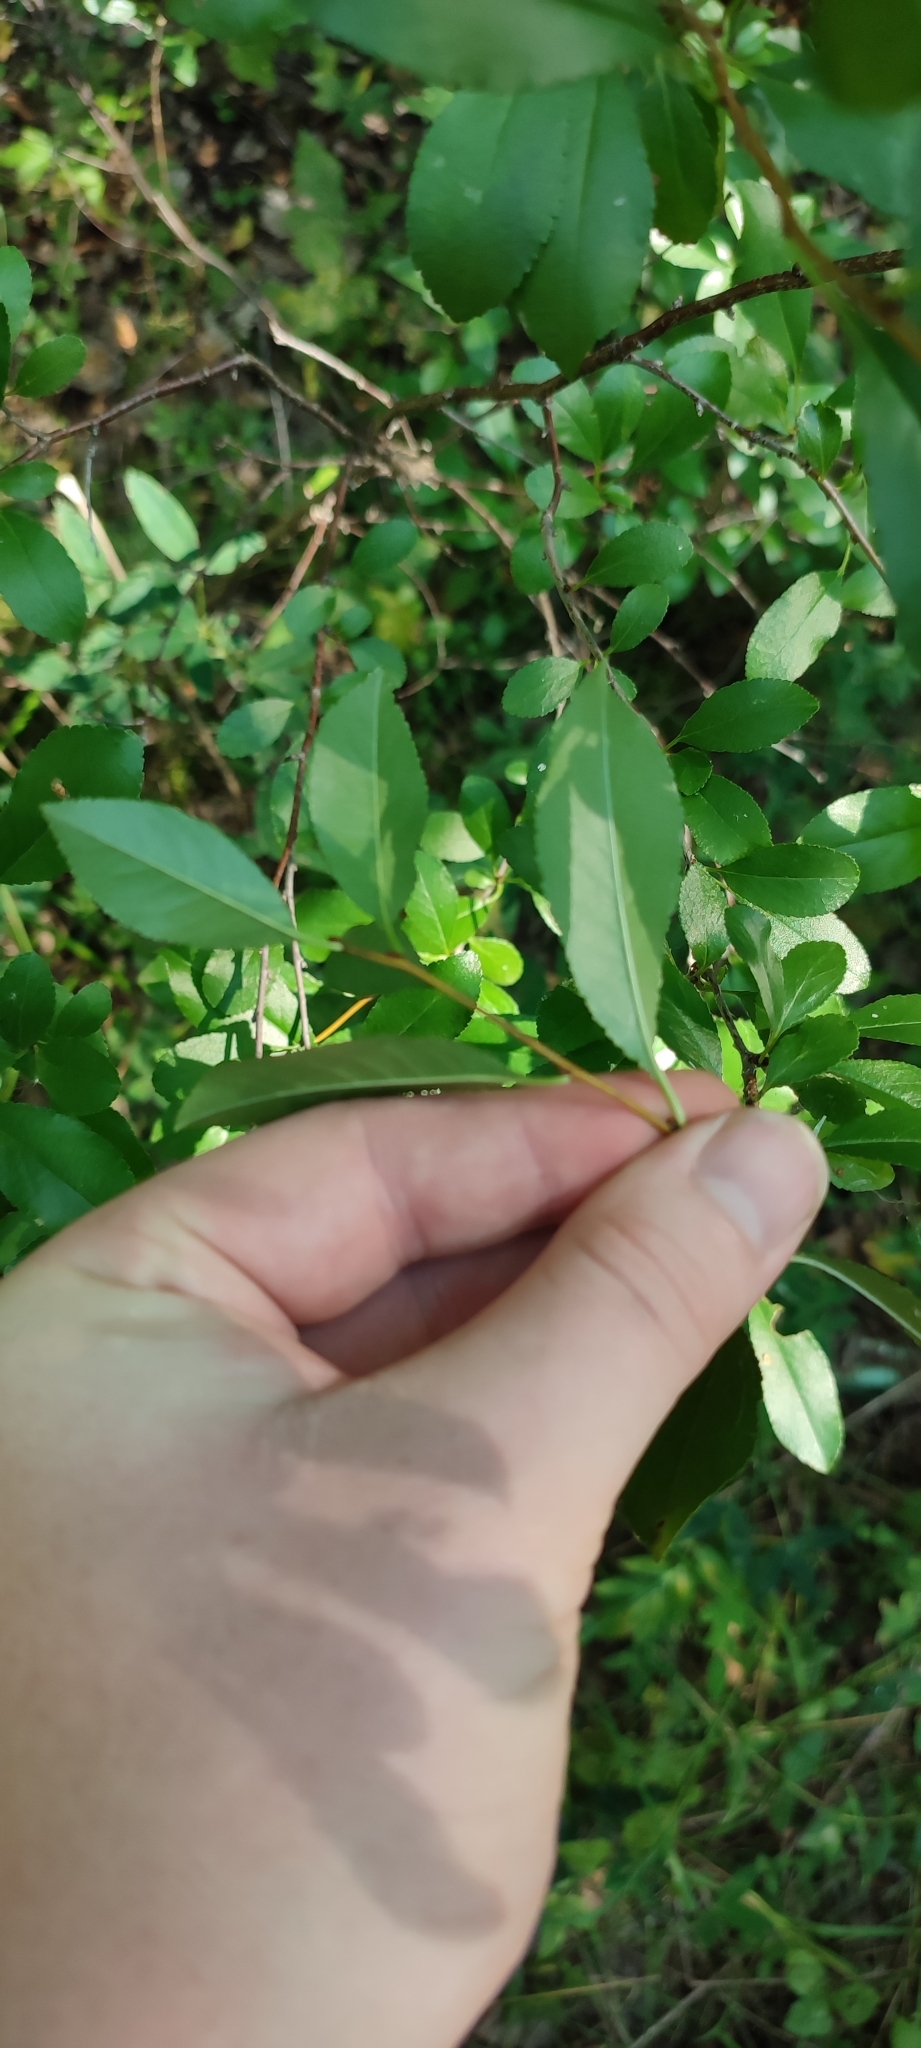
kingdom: Plantae
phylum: Tracheophyta
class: Magnoliopsida
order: Rosales
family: Rosaceae
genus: Prunus
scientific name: Prunus fruticosa
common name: European dwarf cherry
